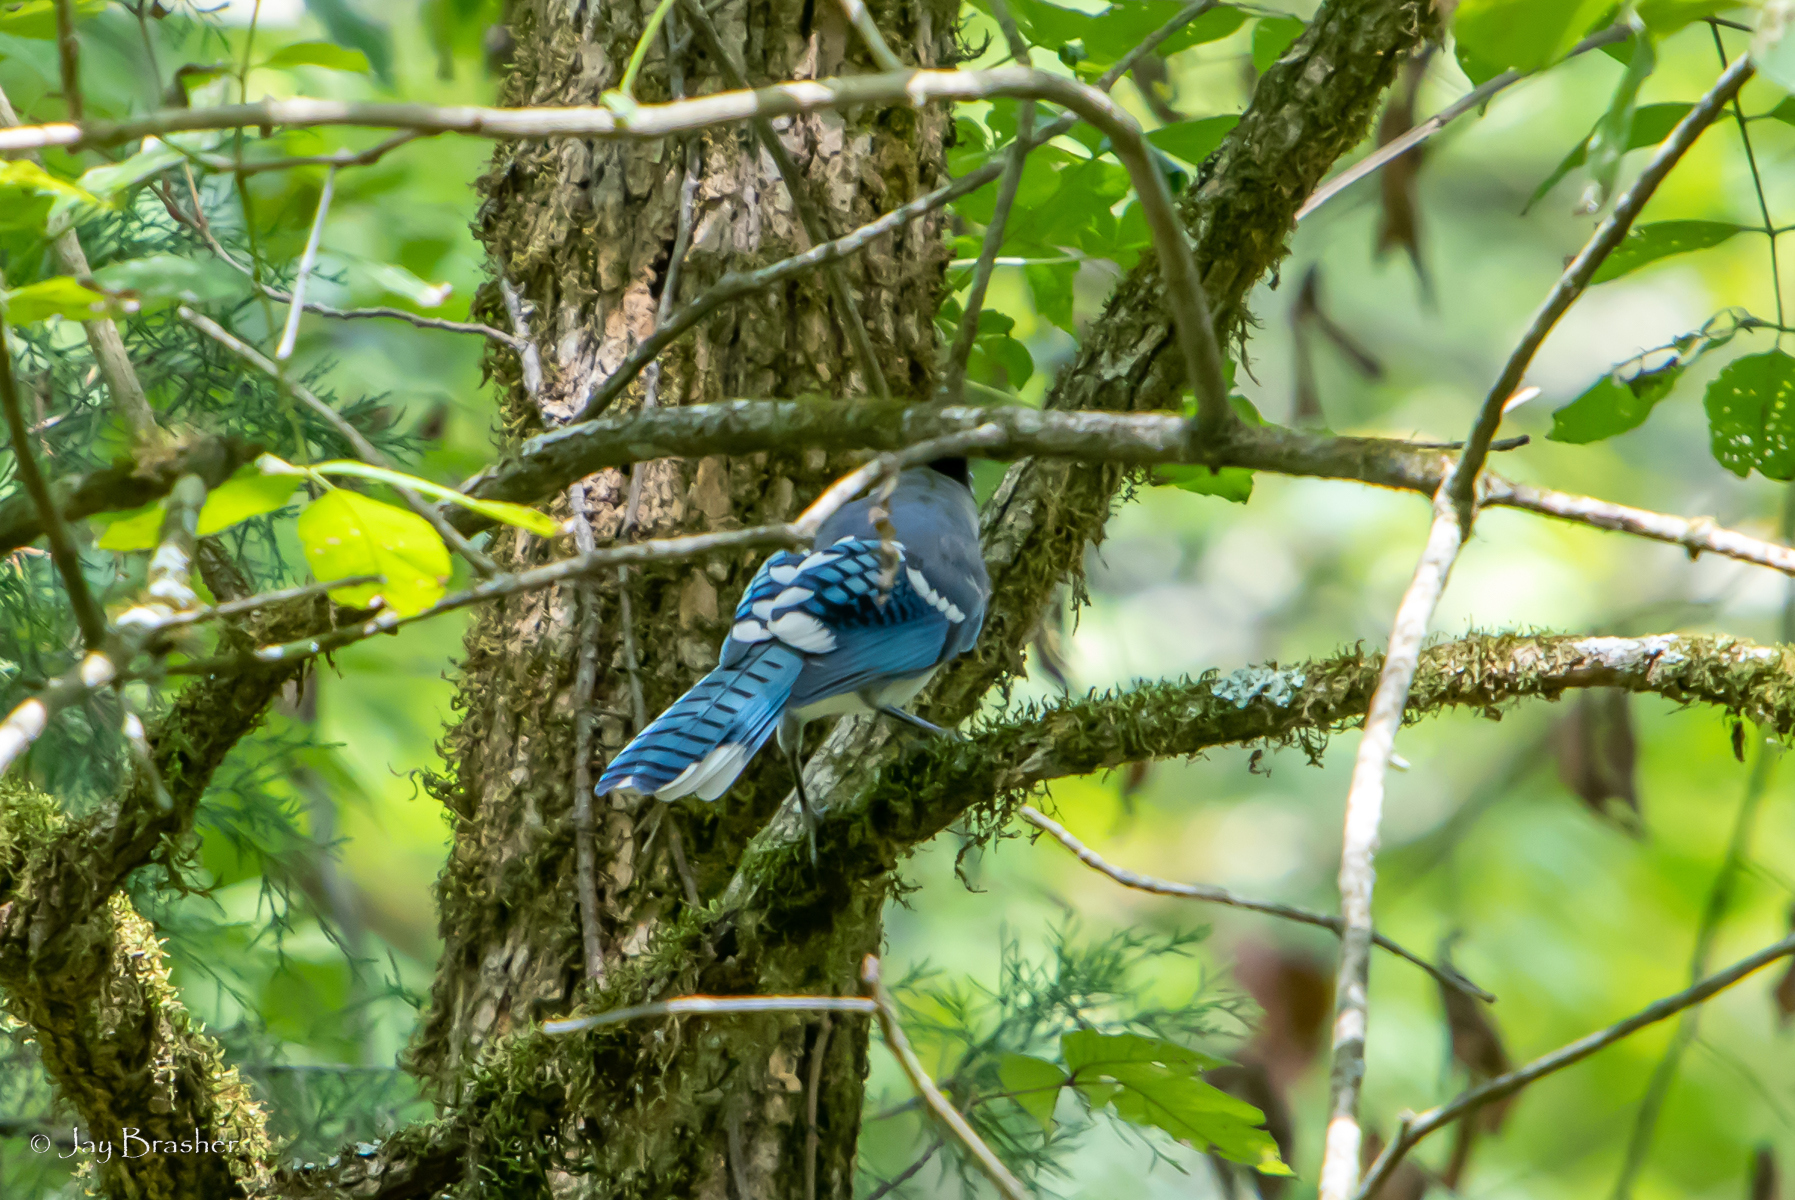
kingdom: Animalia
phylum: Chordata
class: Aves
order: Passeriformes
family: Corvidae
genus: Cyanocitta
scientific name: Cyanocitta cristata
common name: Blue jay
